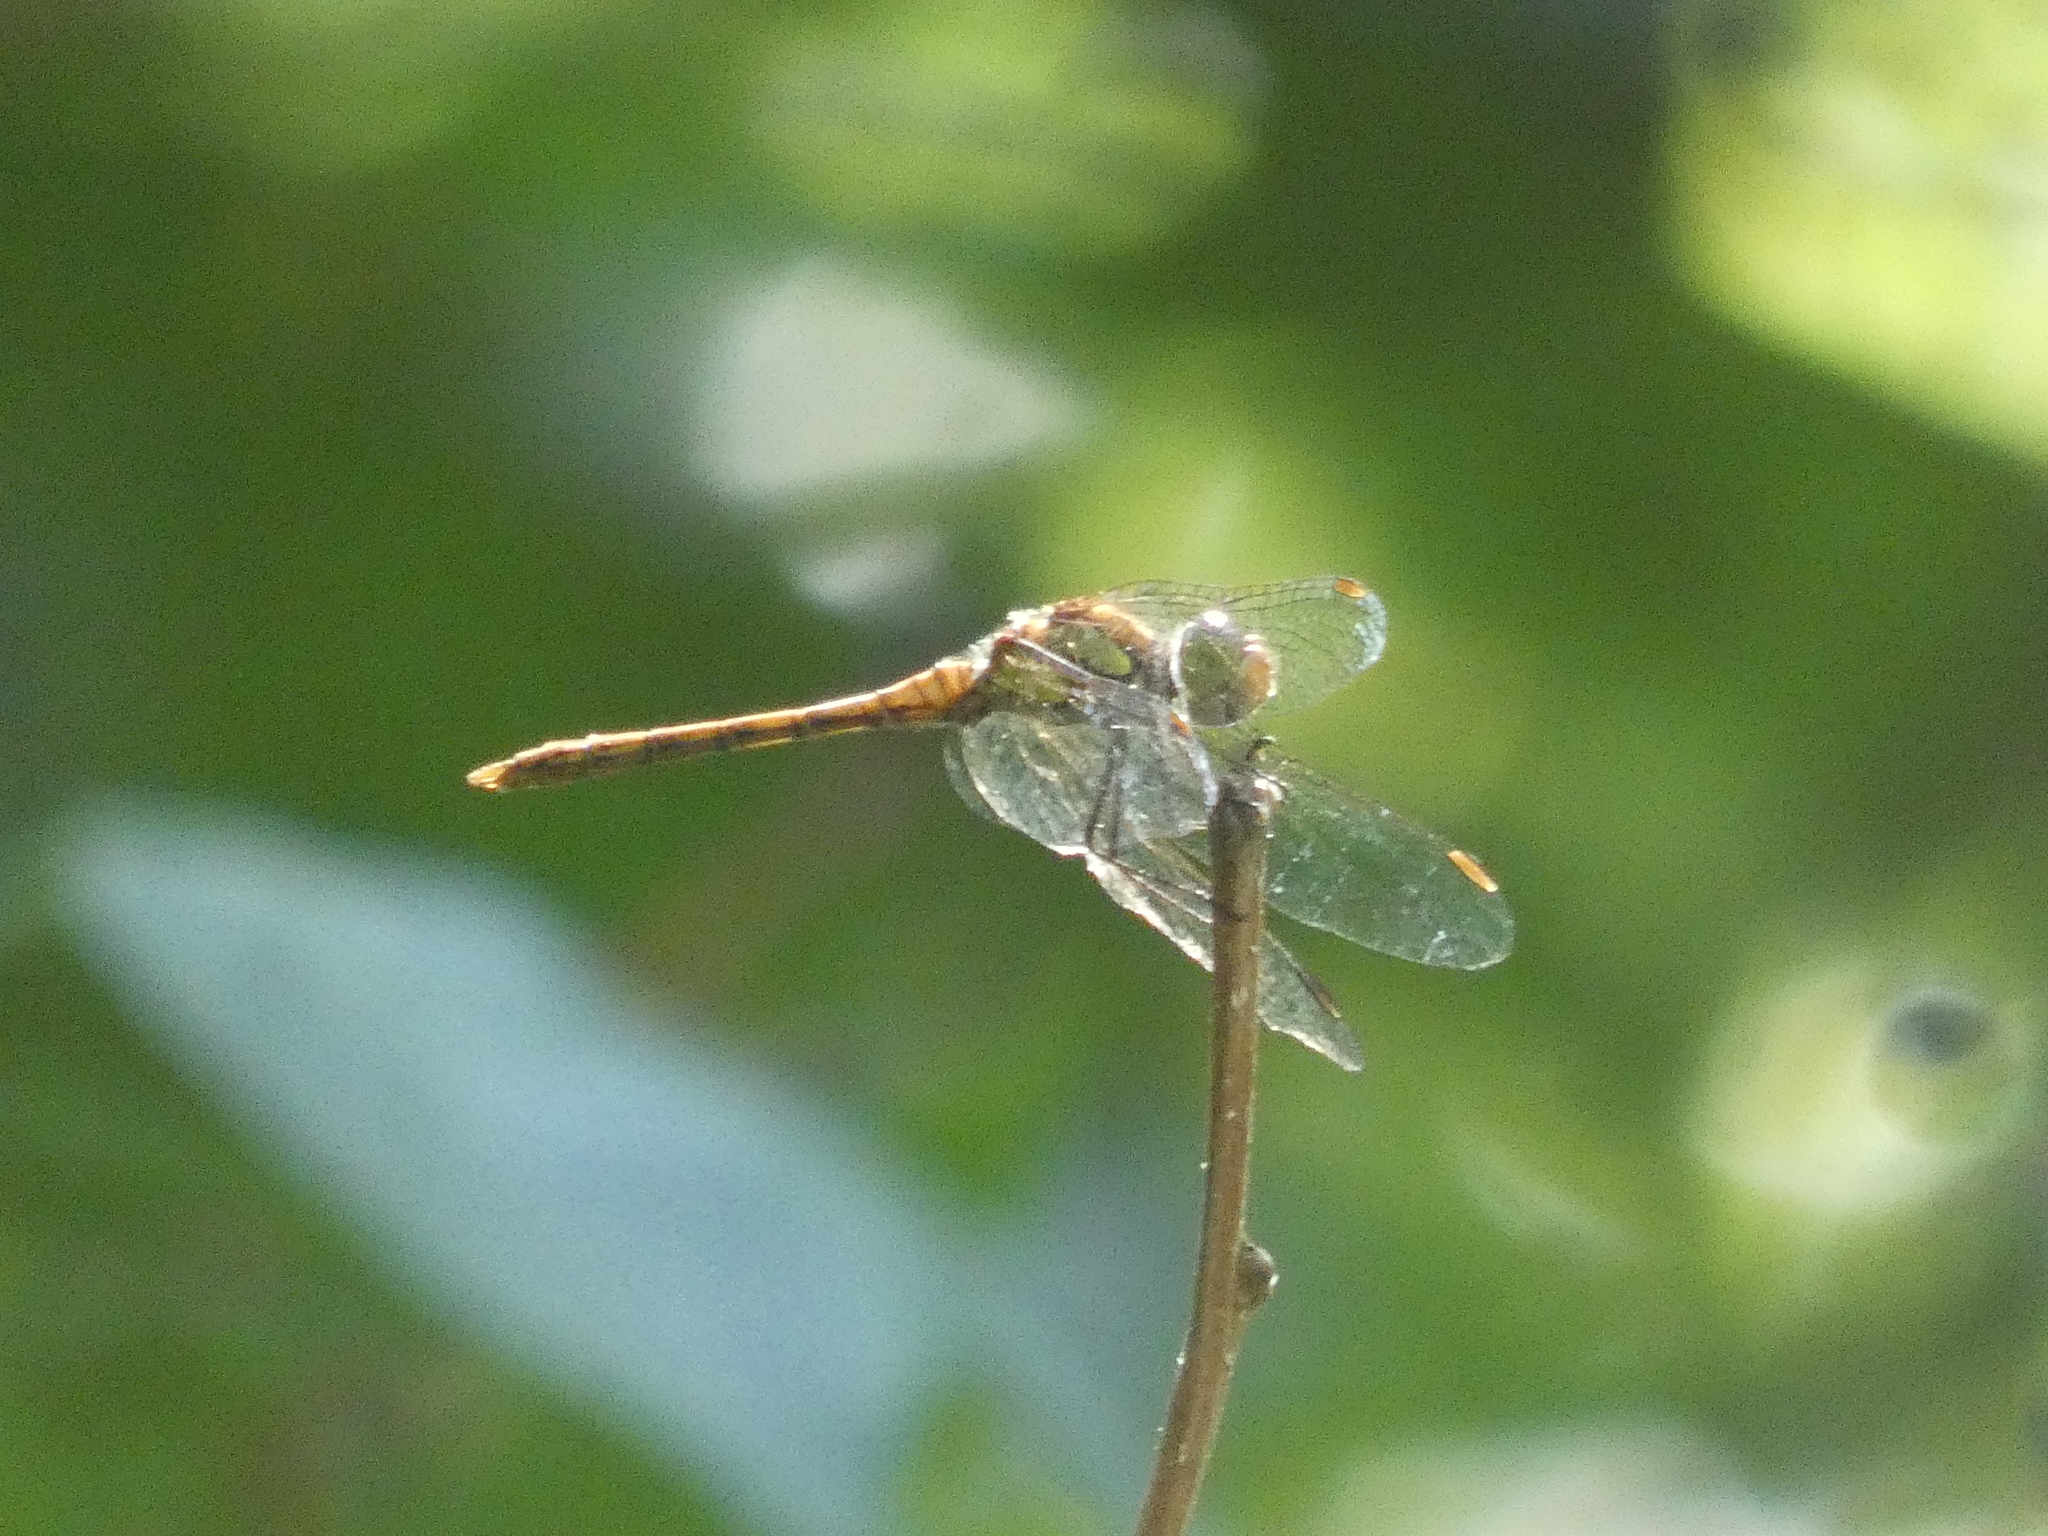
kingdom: Animalia
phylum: Arthropoda
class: Insecta
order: Odonata
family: Libellulidae
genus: Sympetrum
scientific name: Sympetrum striolatum
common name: Common darter
